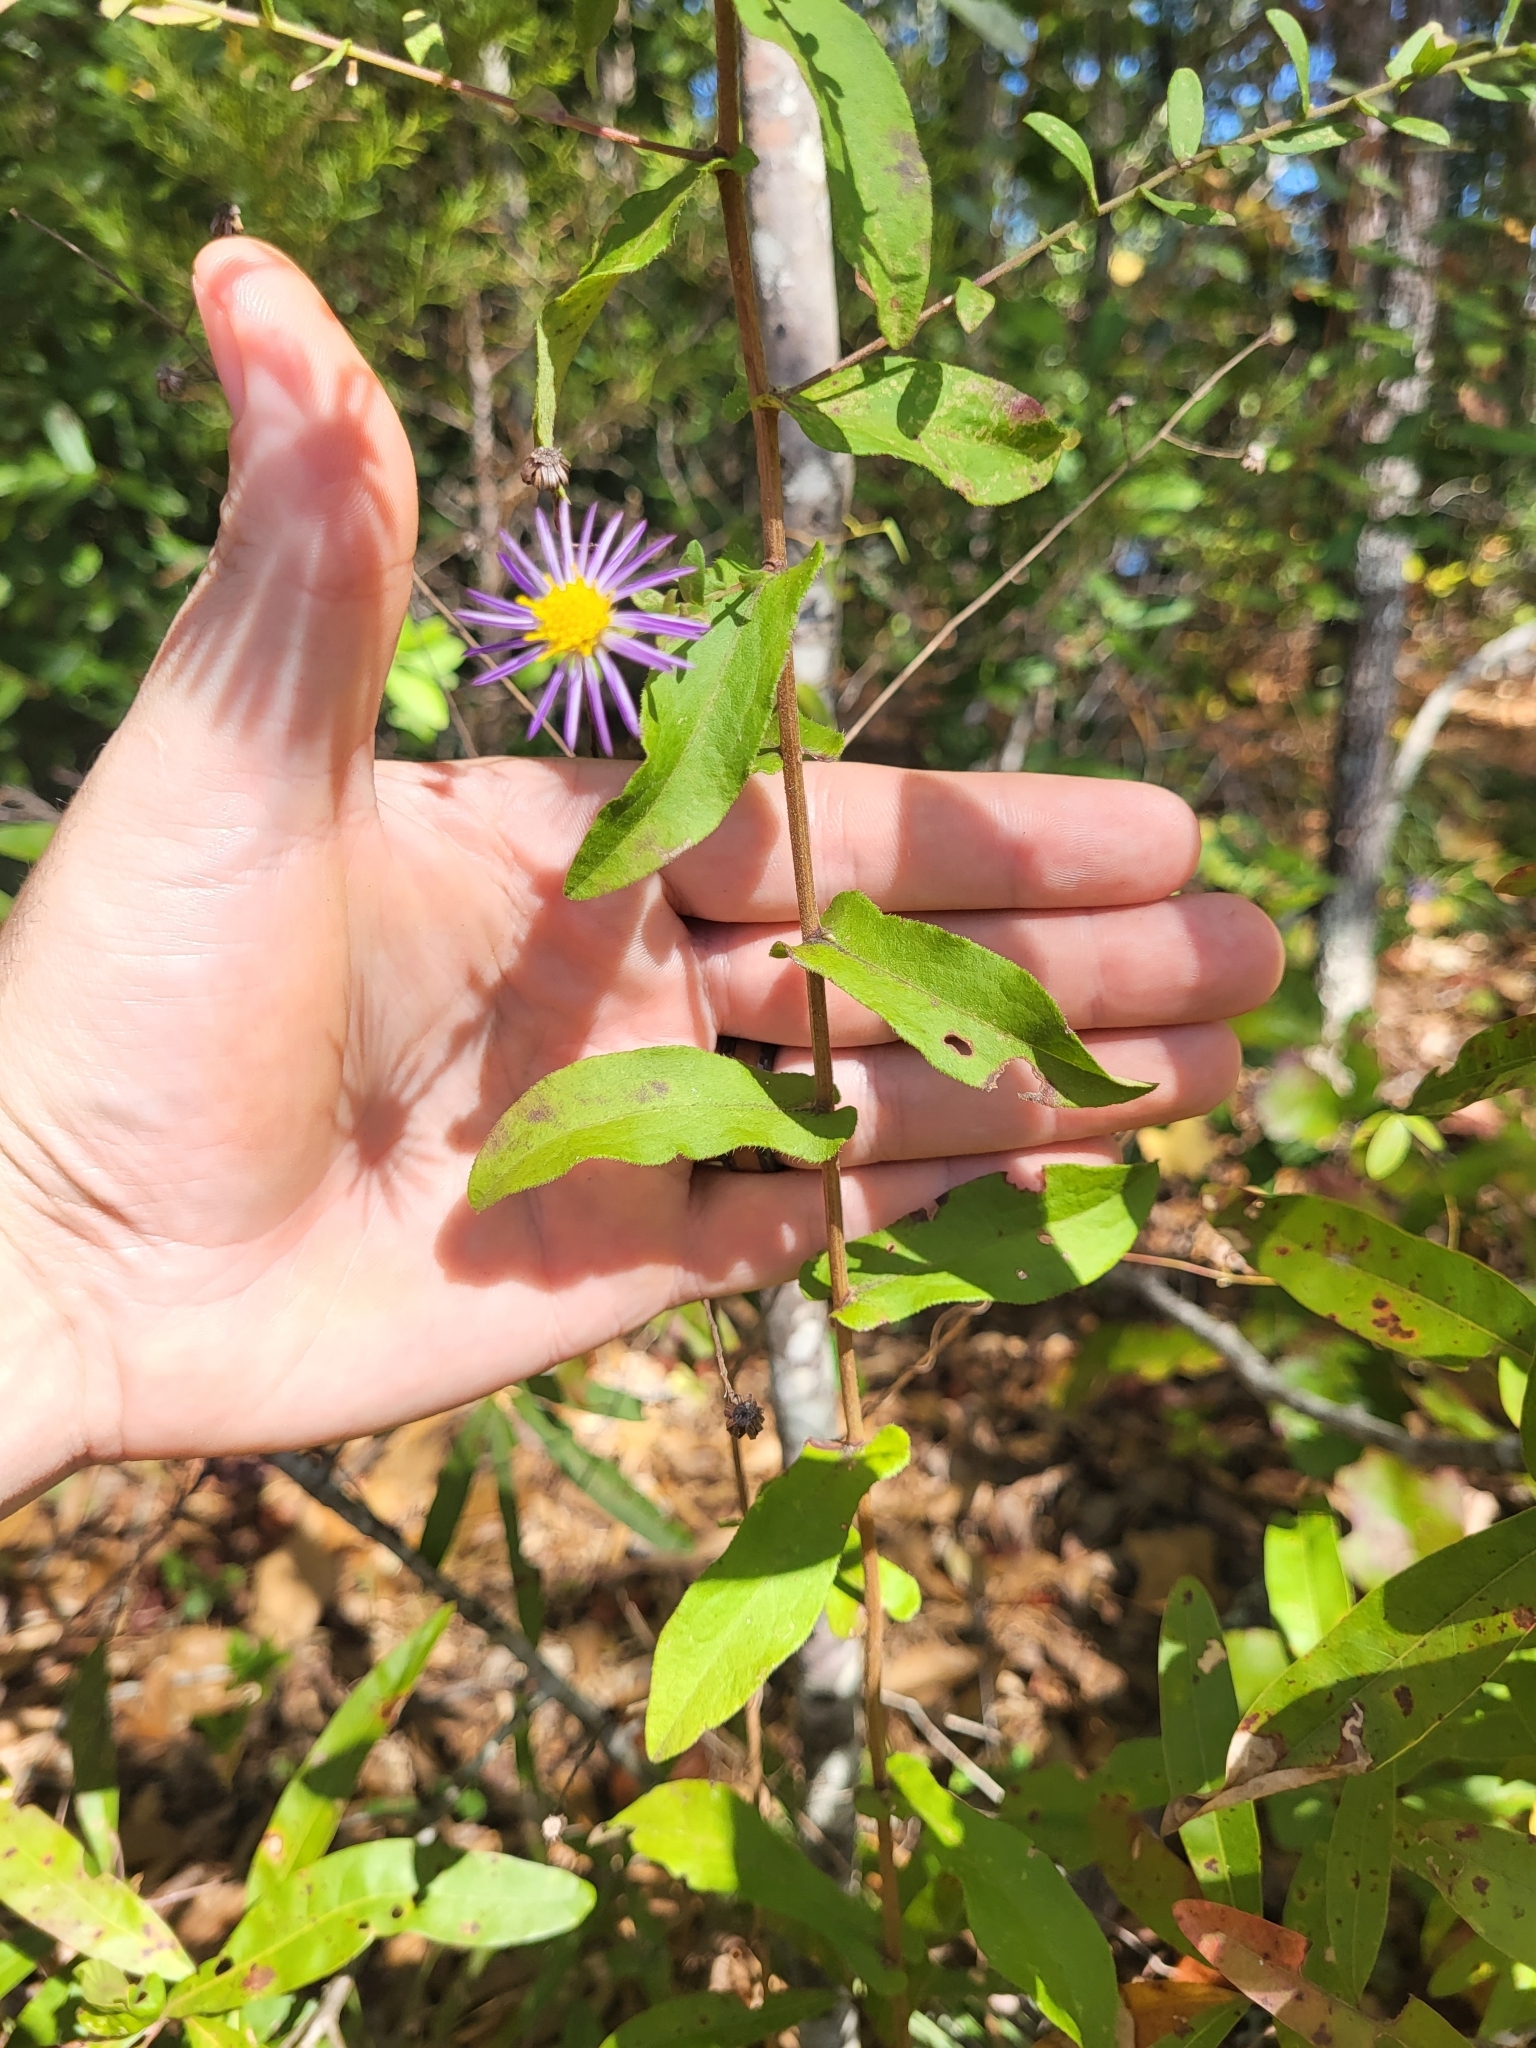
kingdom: Plantae
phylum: Tracheophyta
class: Magnoliopsida
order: Asterales
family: Asteraceae
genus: Symphyotrichum
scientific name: Symphyotrichum patens
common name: Late purple aster
